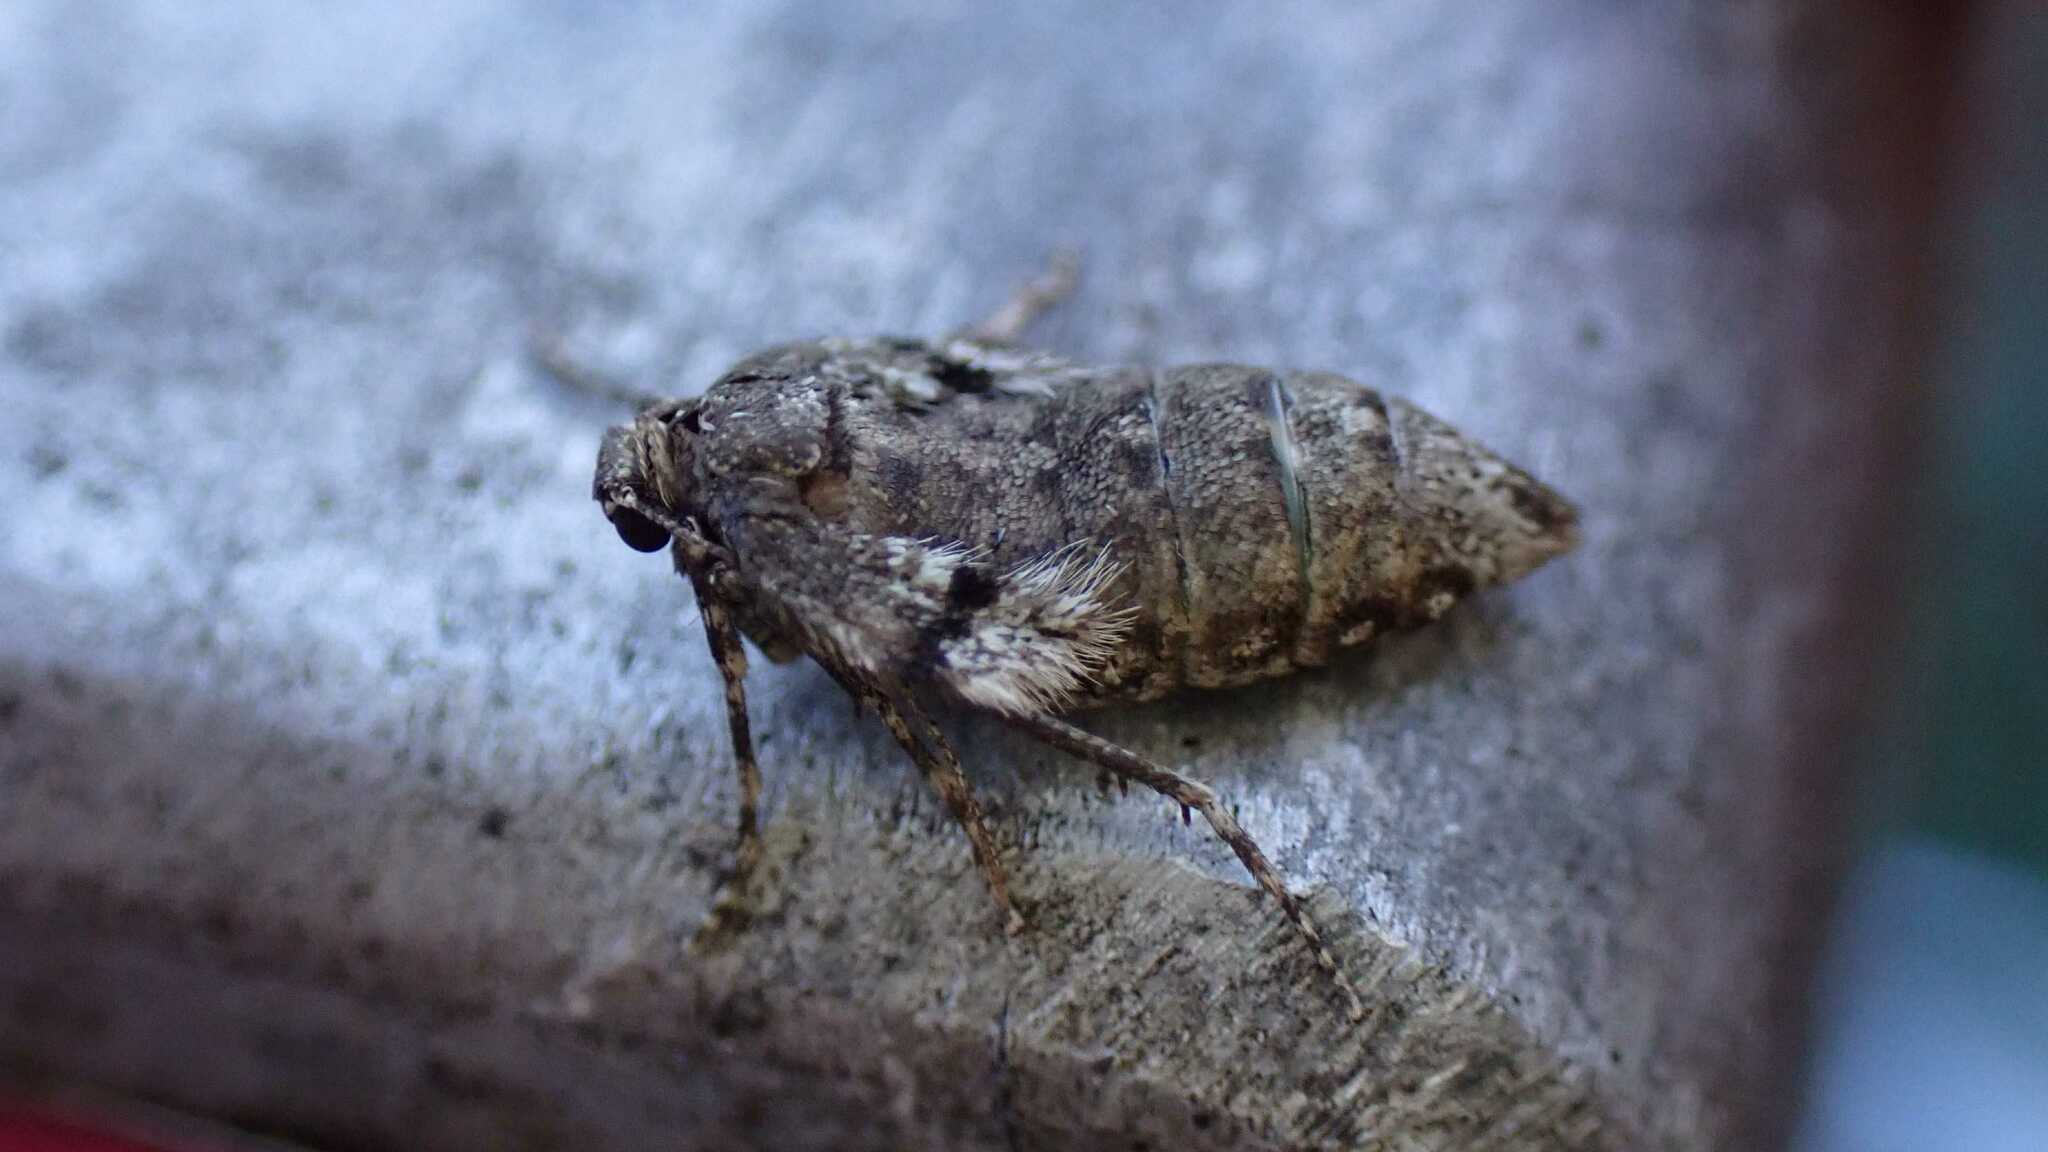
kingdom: Animalia
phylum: Arthropoda
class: Insecta
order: Lepidoptera
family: Geometridae
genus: Operophtera
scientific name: Operophtera brumata
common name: Winter moth
